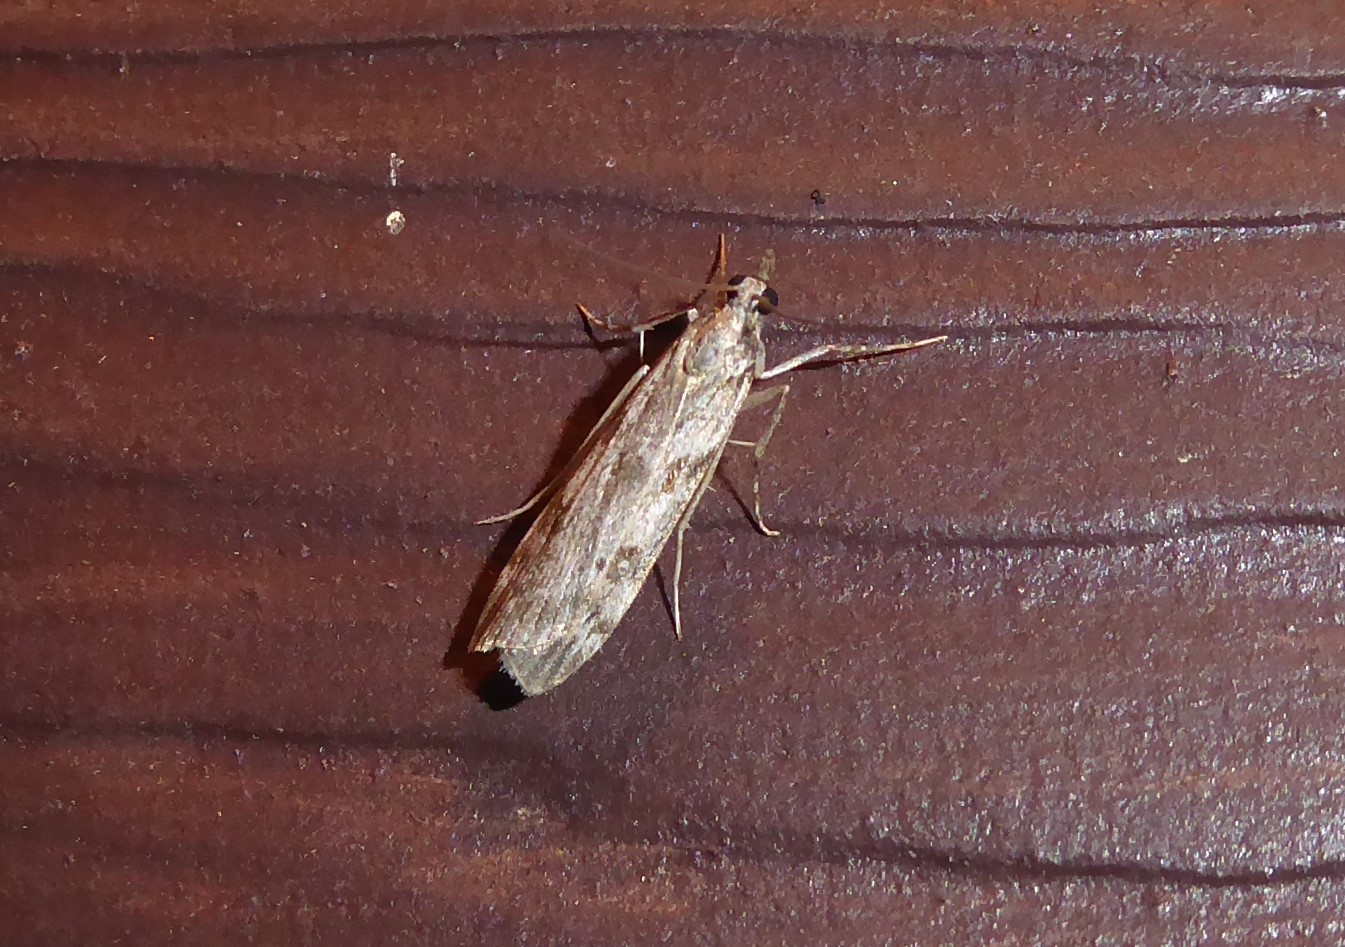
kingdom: Animalia
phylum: Arthropoda
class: Insecta
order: Lepidoptera
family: Crambidae
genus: Scoparia
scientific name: Scoparia halopis
